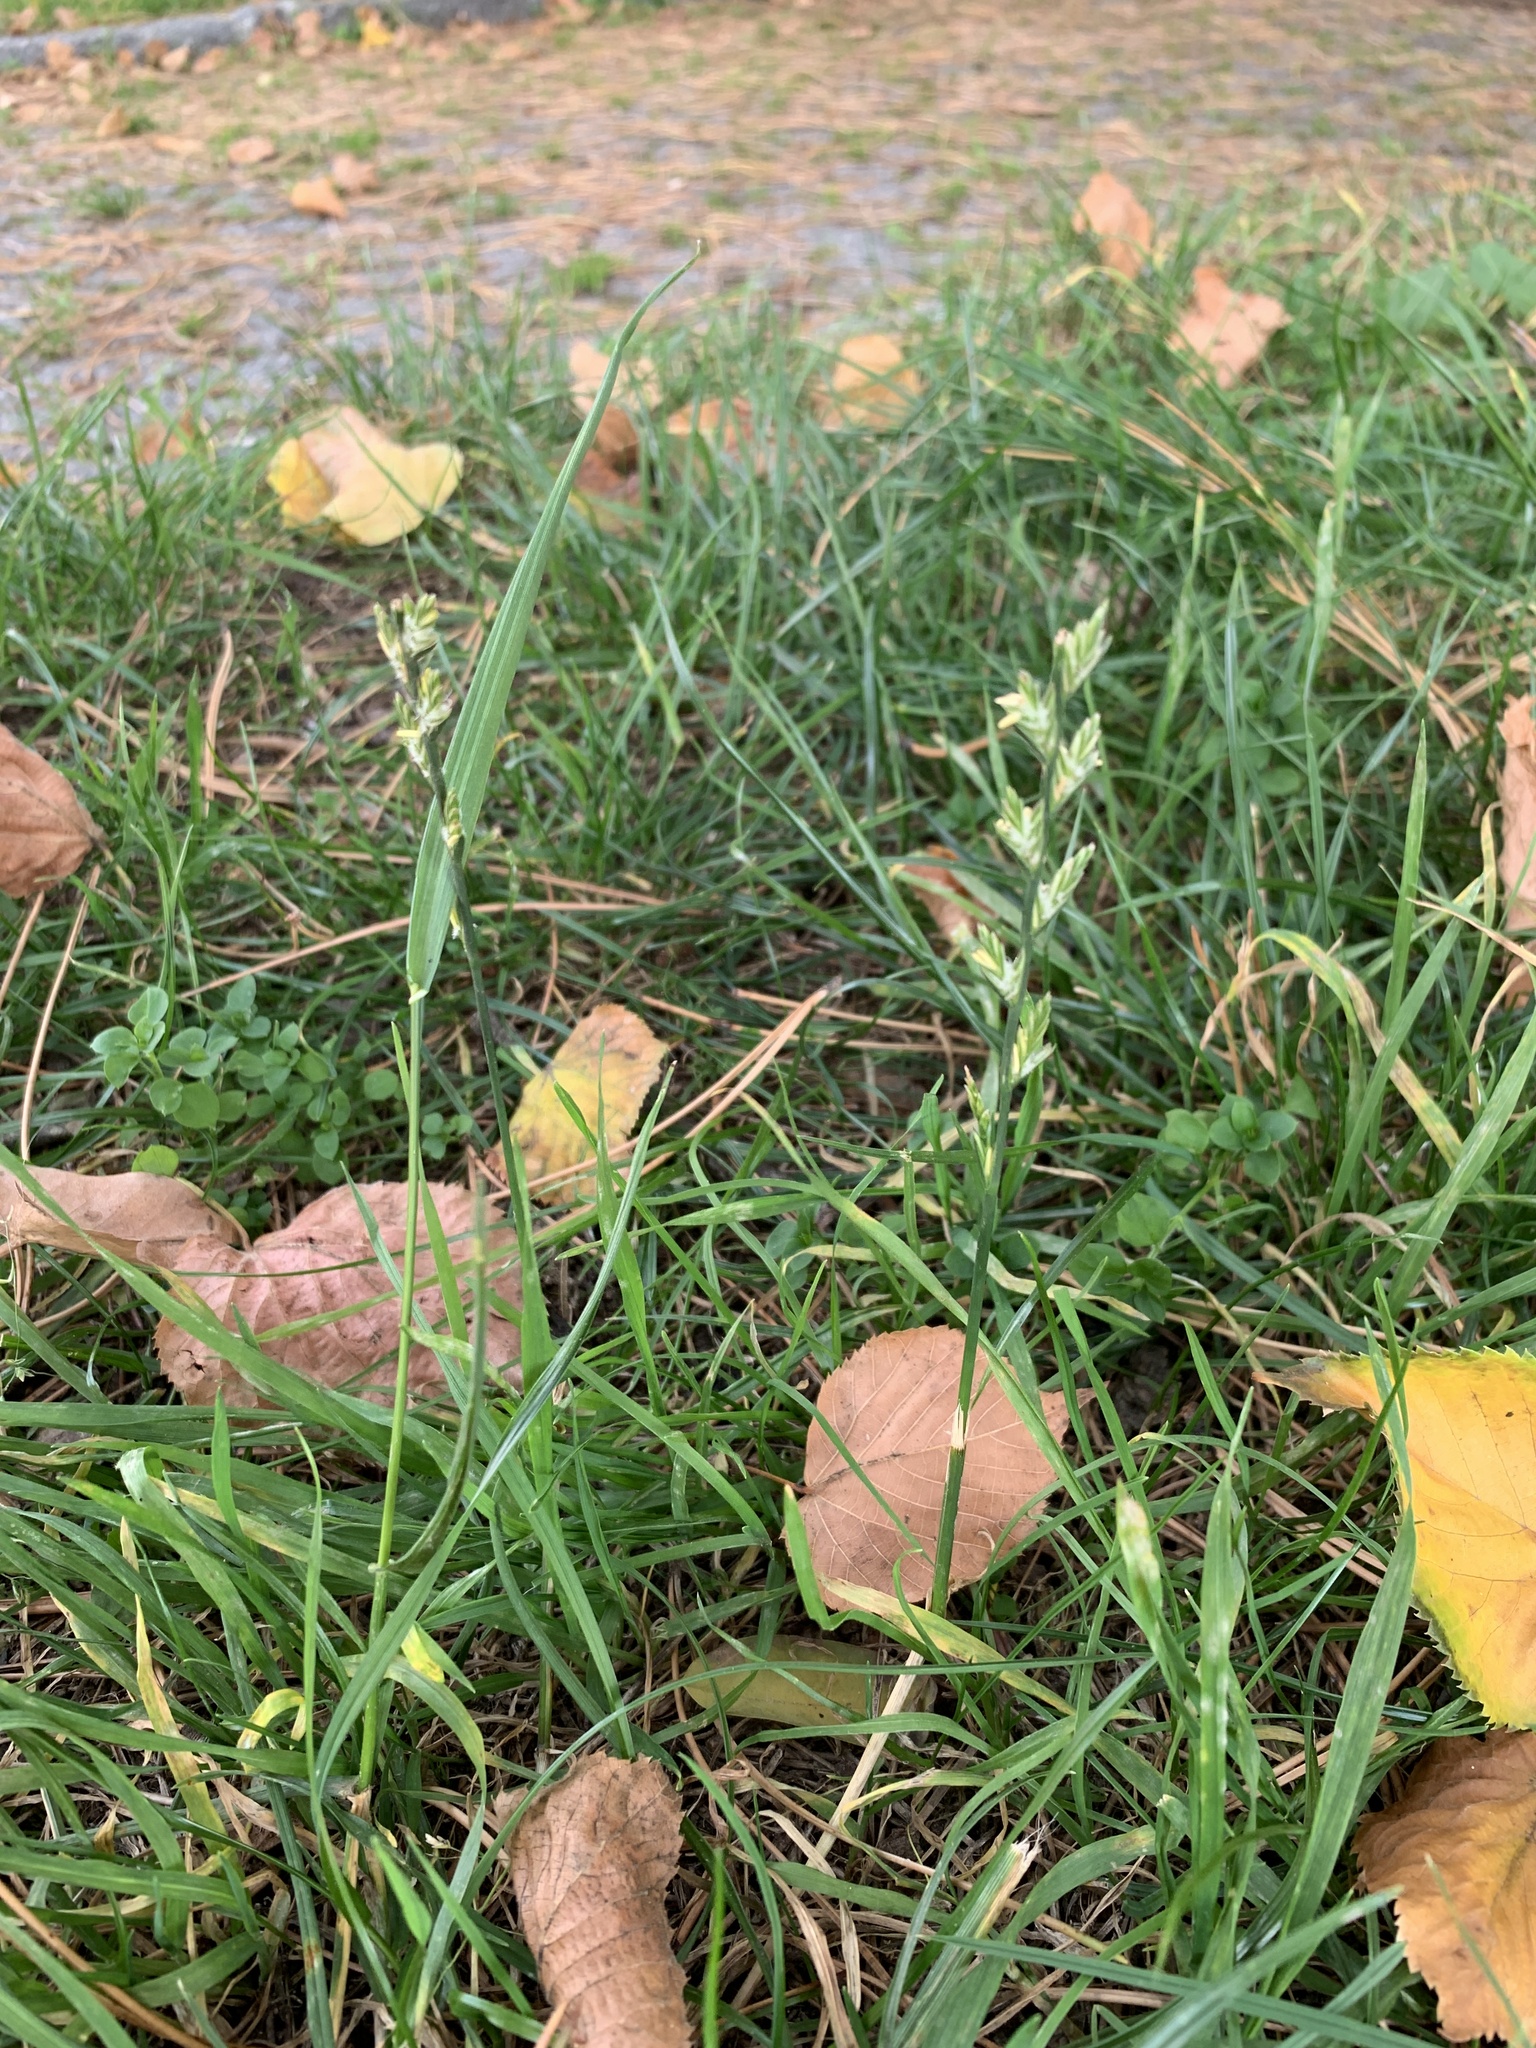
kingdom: Plantae
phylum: Tracheophyta
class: Liliopsida
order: Poales
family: Poaceae
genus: Lolium
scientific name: Lolium perenne
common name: Perennial ryegrass
